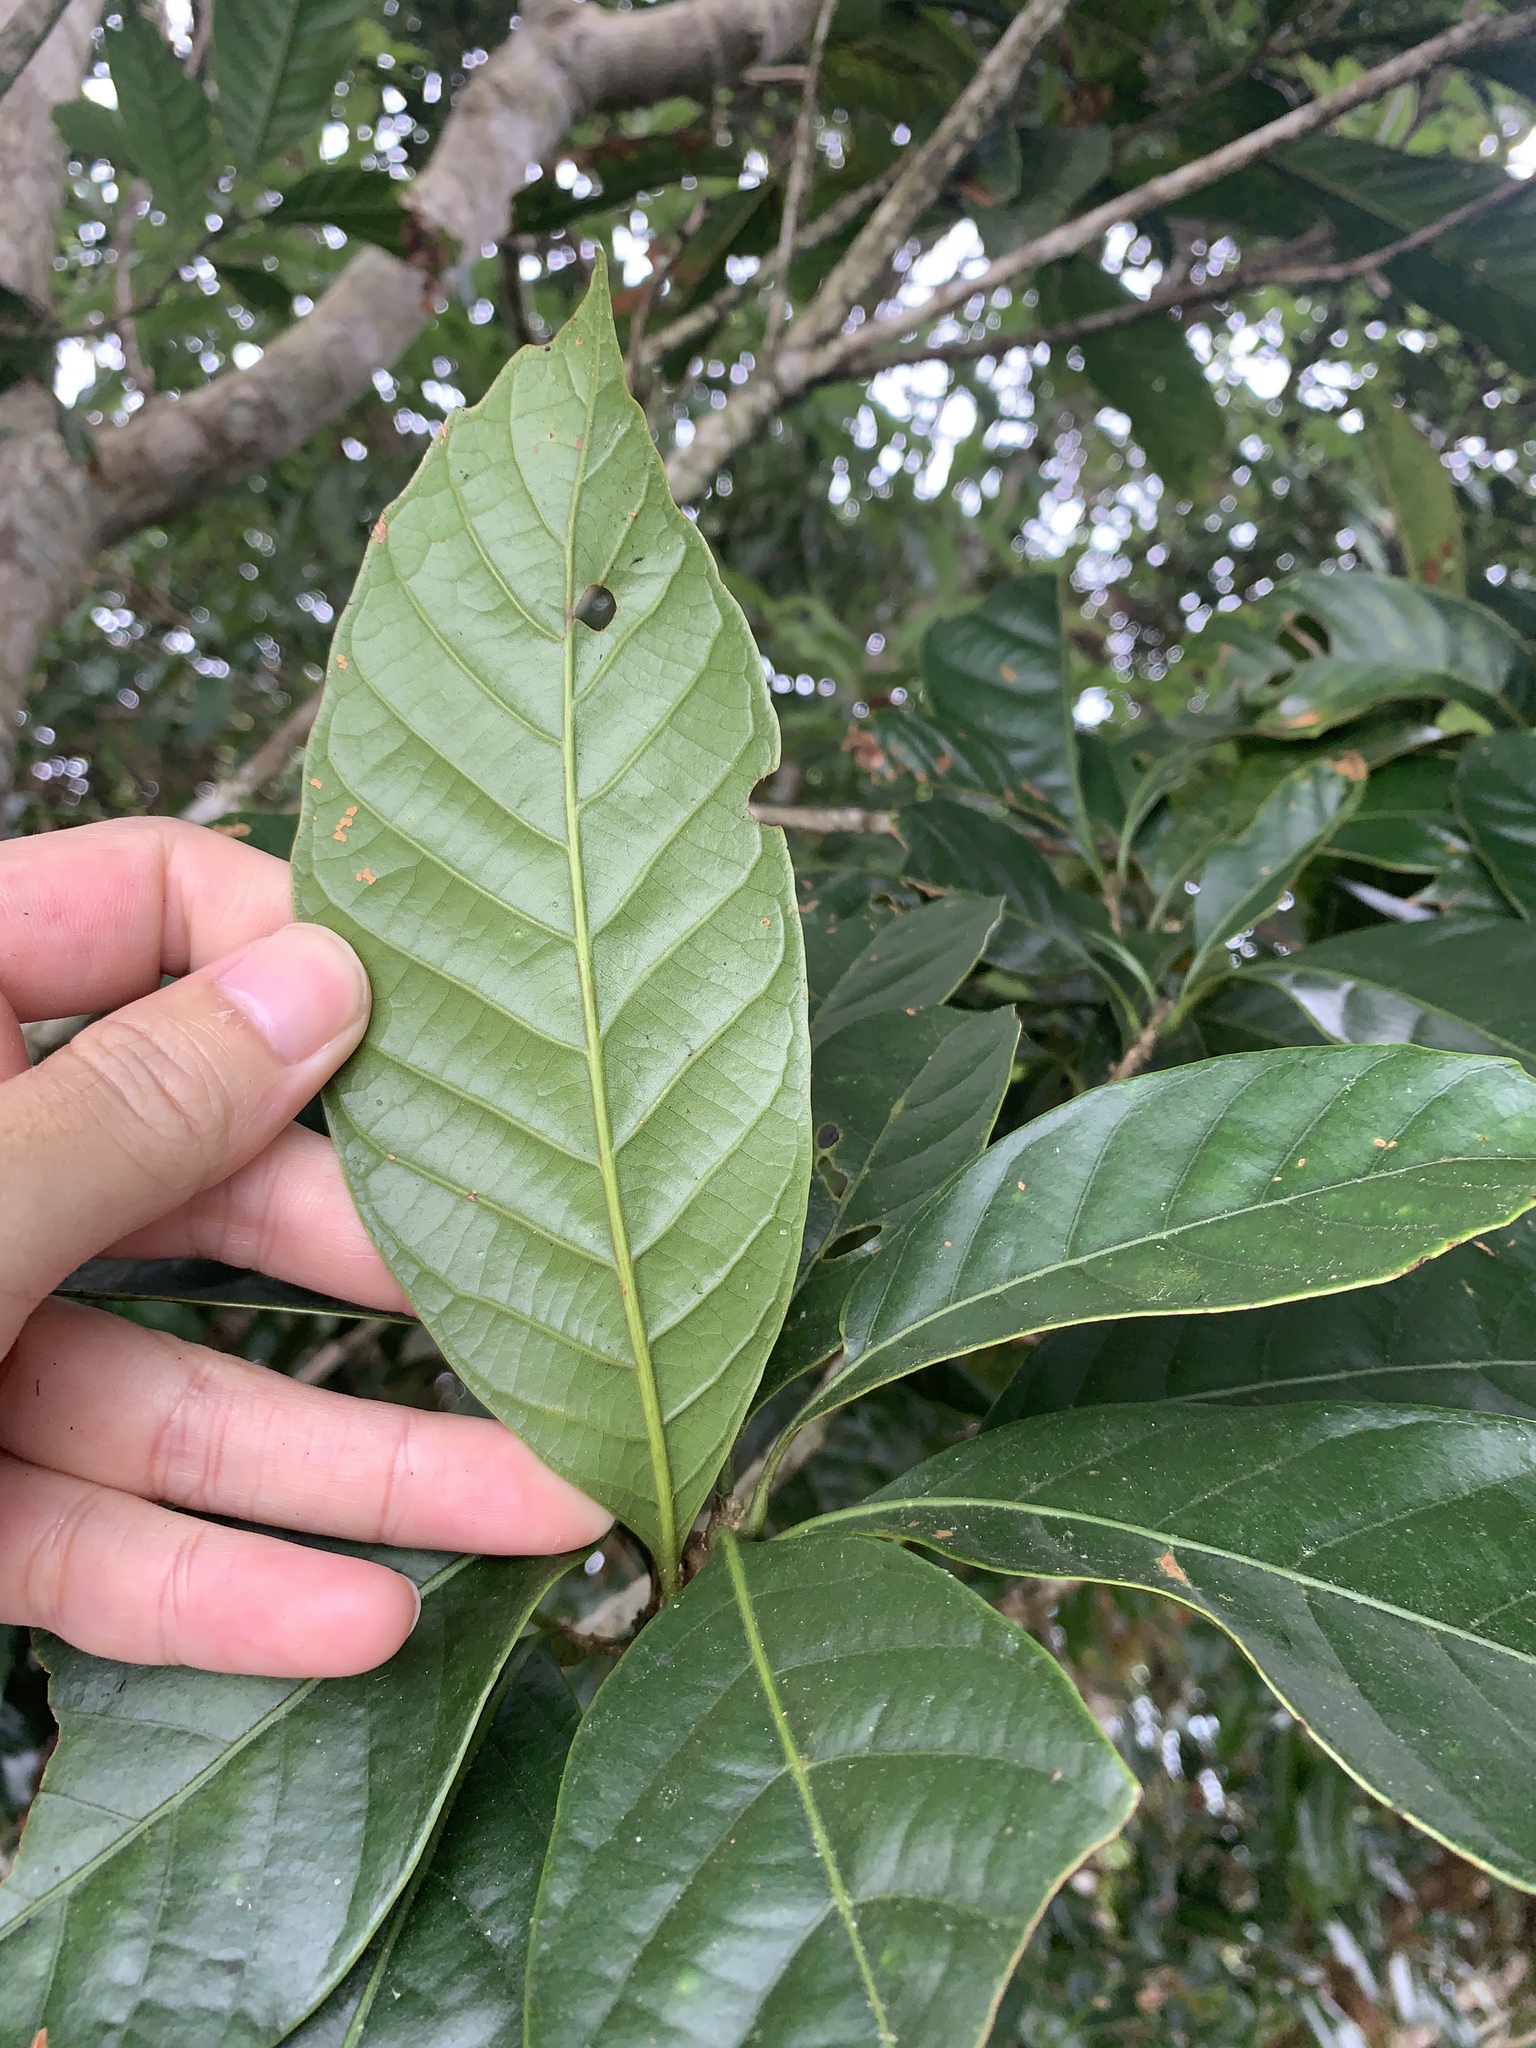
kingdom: Plantae
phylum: Tracheophyta
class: Magnoliopsida
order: Fagales
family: Fagaceae
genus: Lithocarpus
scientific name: Lithocarpus kawakamii
